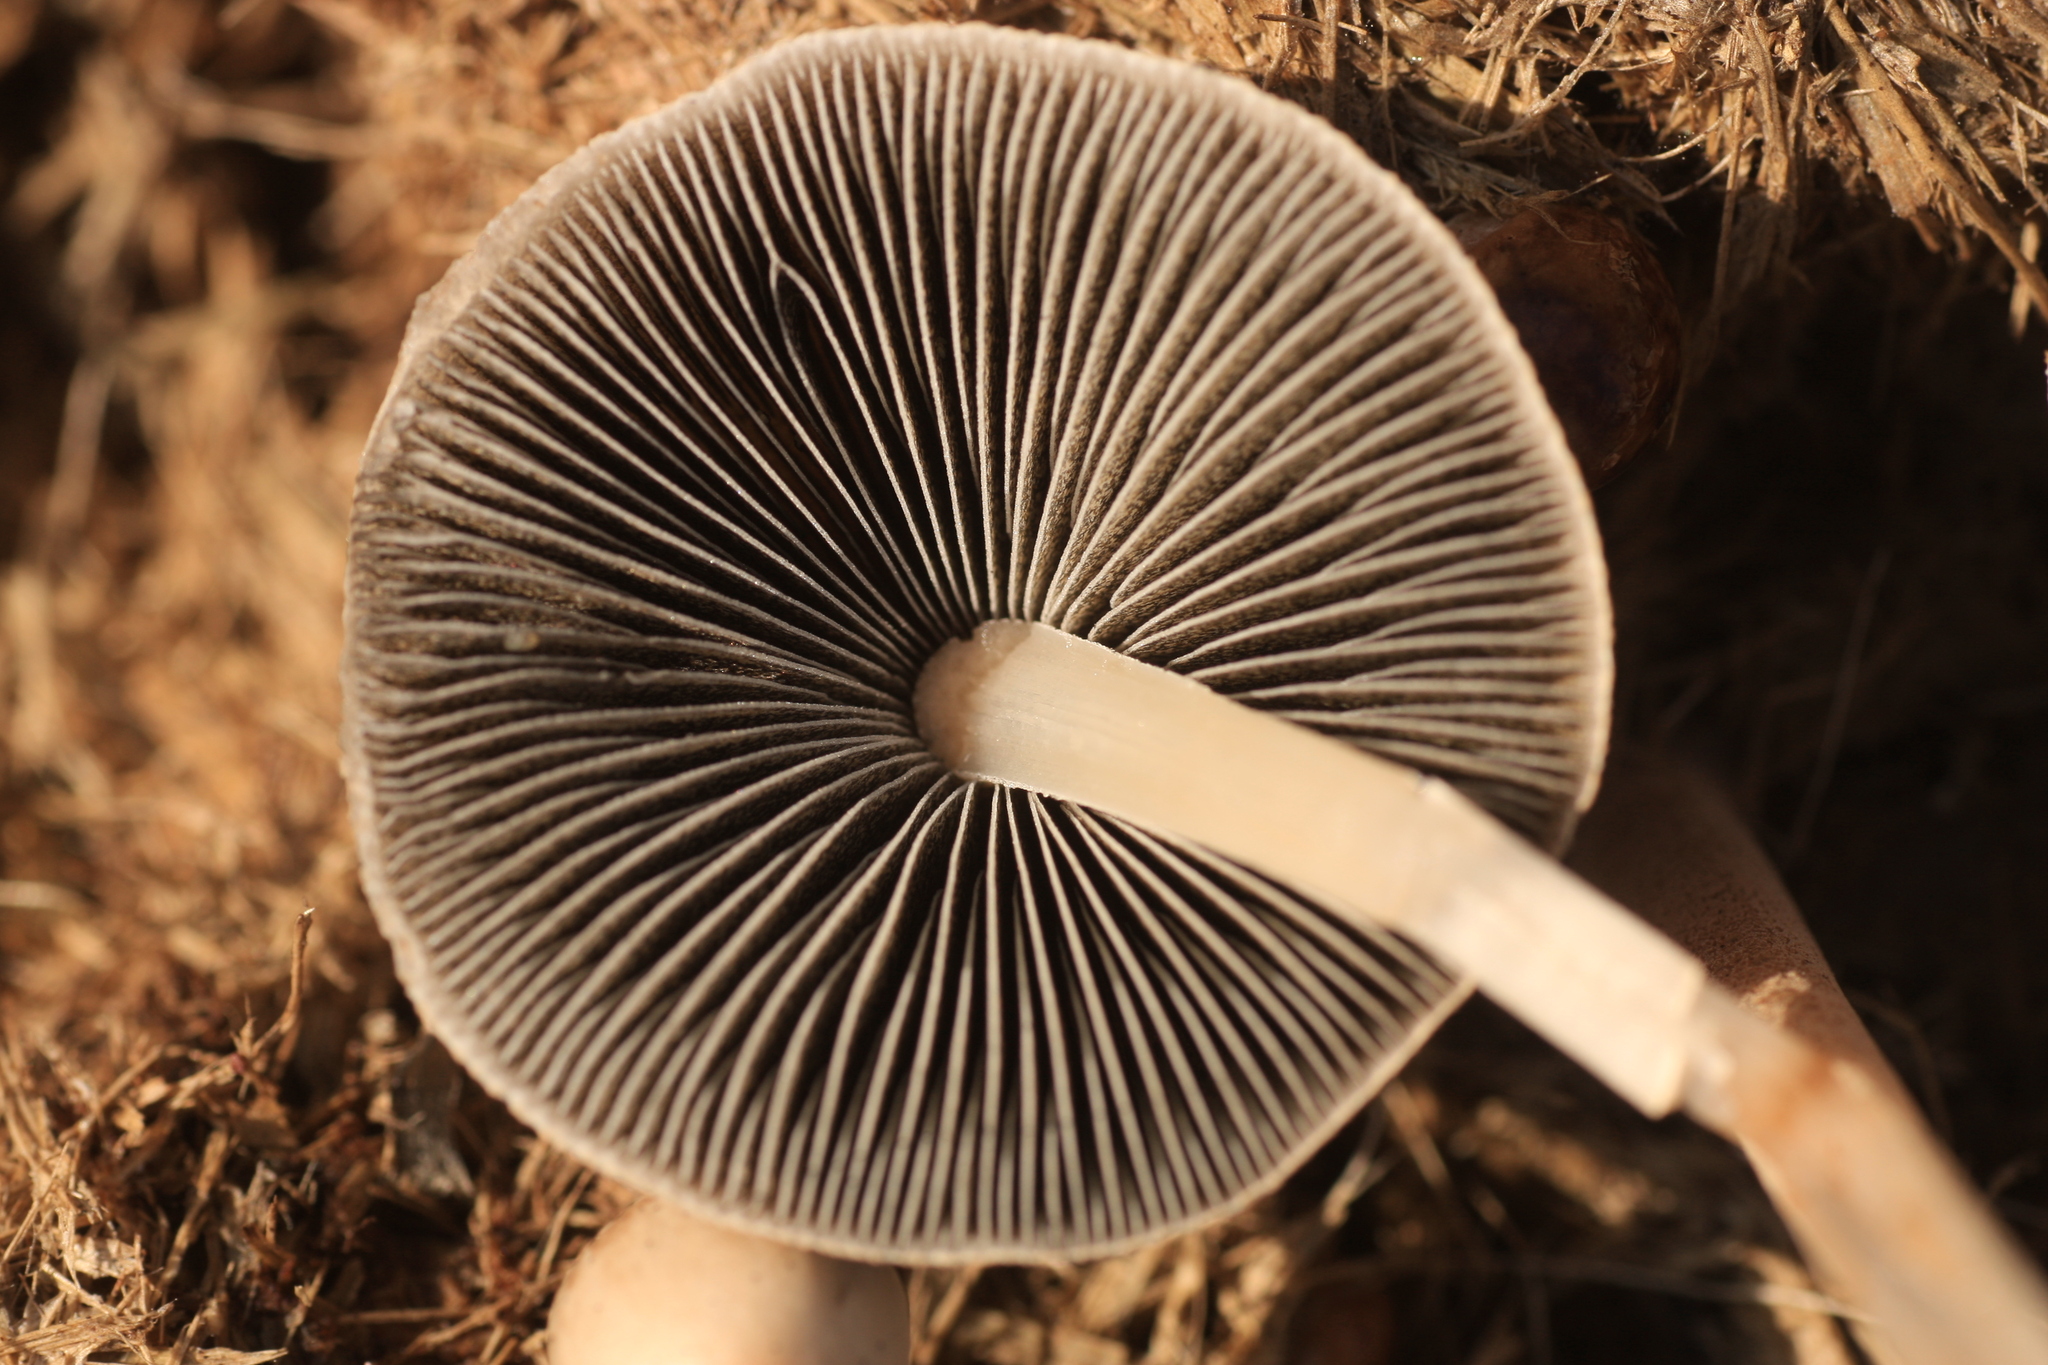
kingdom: Fungi
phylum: Basidiomycota
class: Agaricomycetes
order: Agaricales
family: Bolbitiaceae
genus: Panaeolus
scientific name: Panaeolus antillarum
